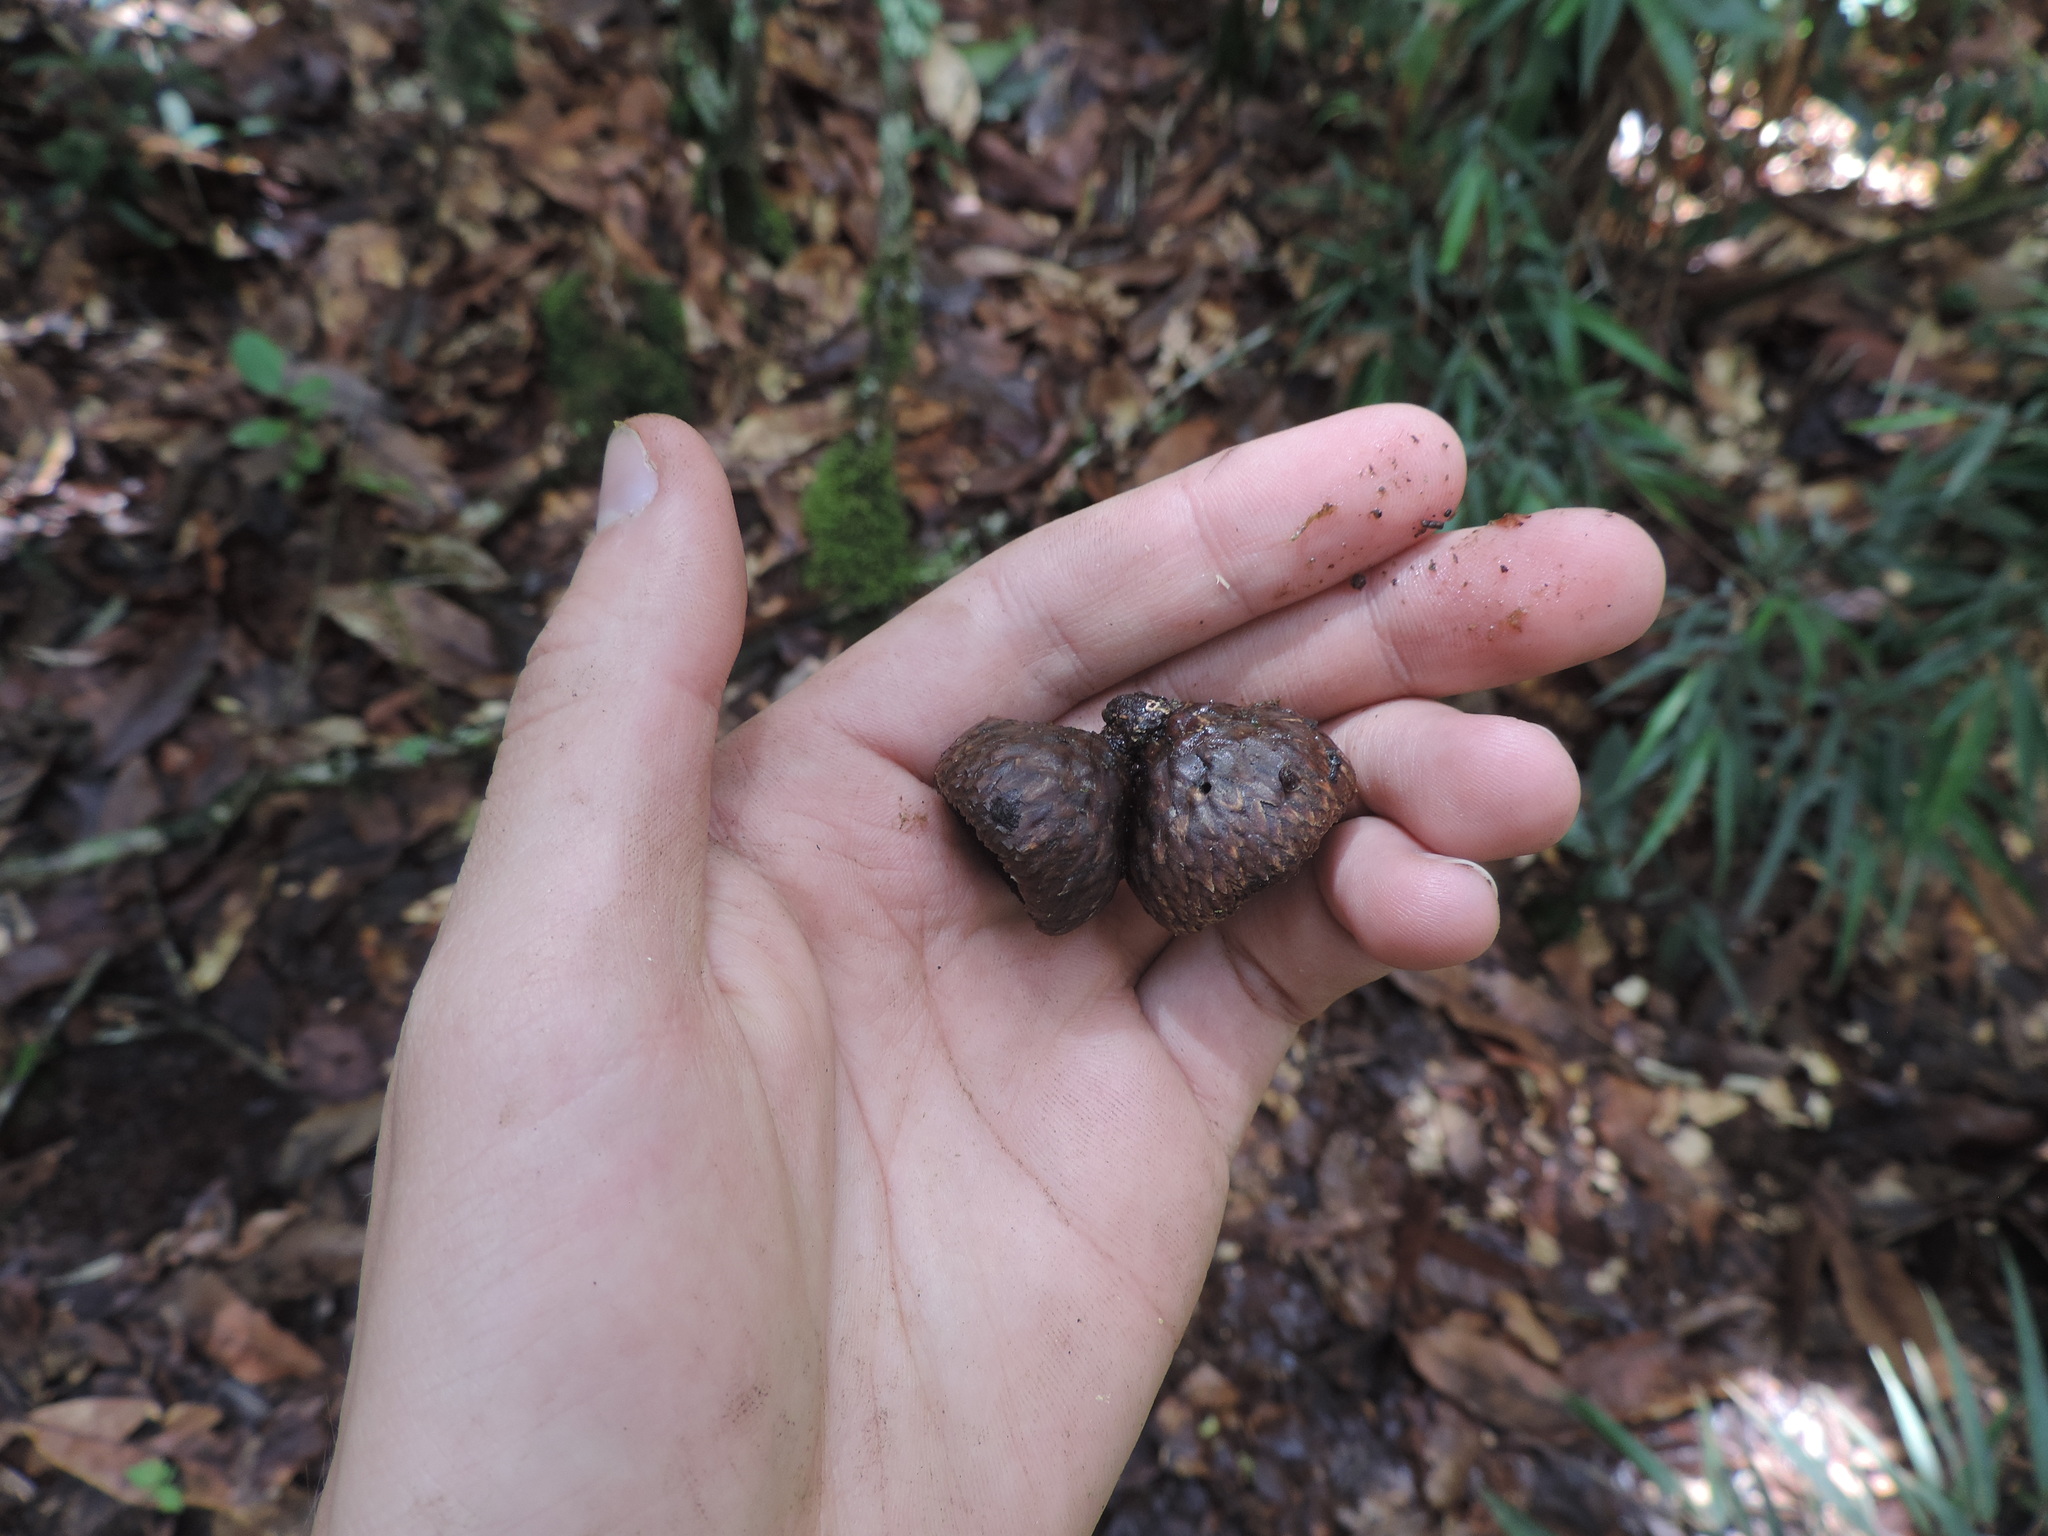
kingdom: Plantae
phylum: Tracheophyta
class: Magnoliopsida
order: Fagales
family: Fagaceae
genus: Quercus
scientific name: Quercus humboldtii
